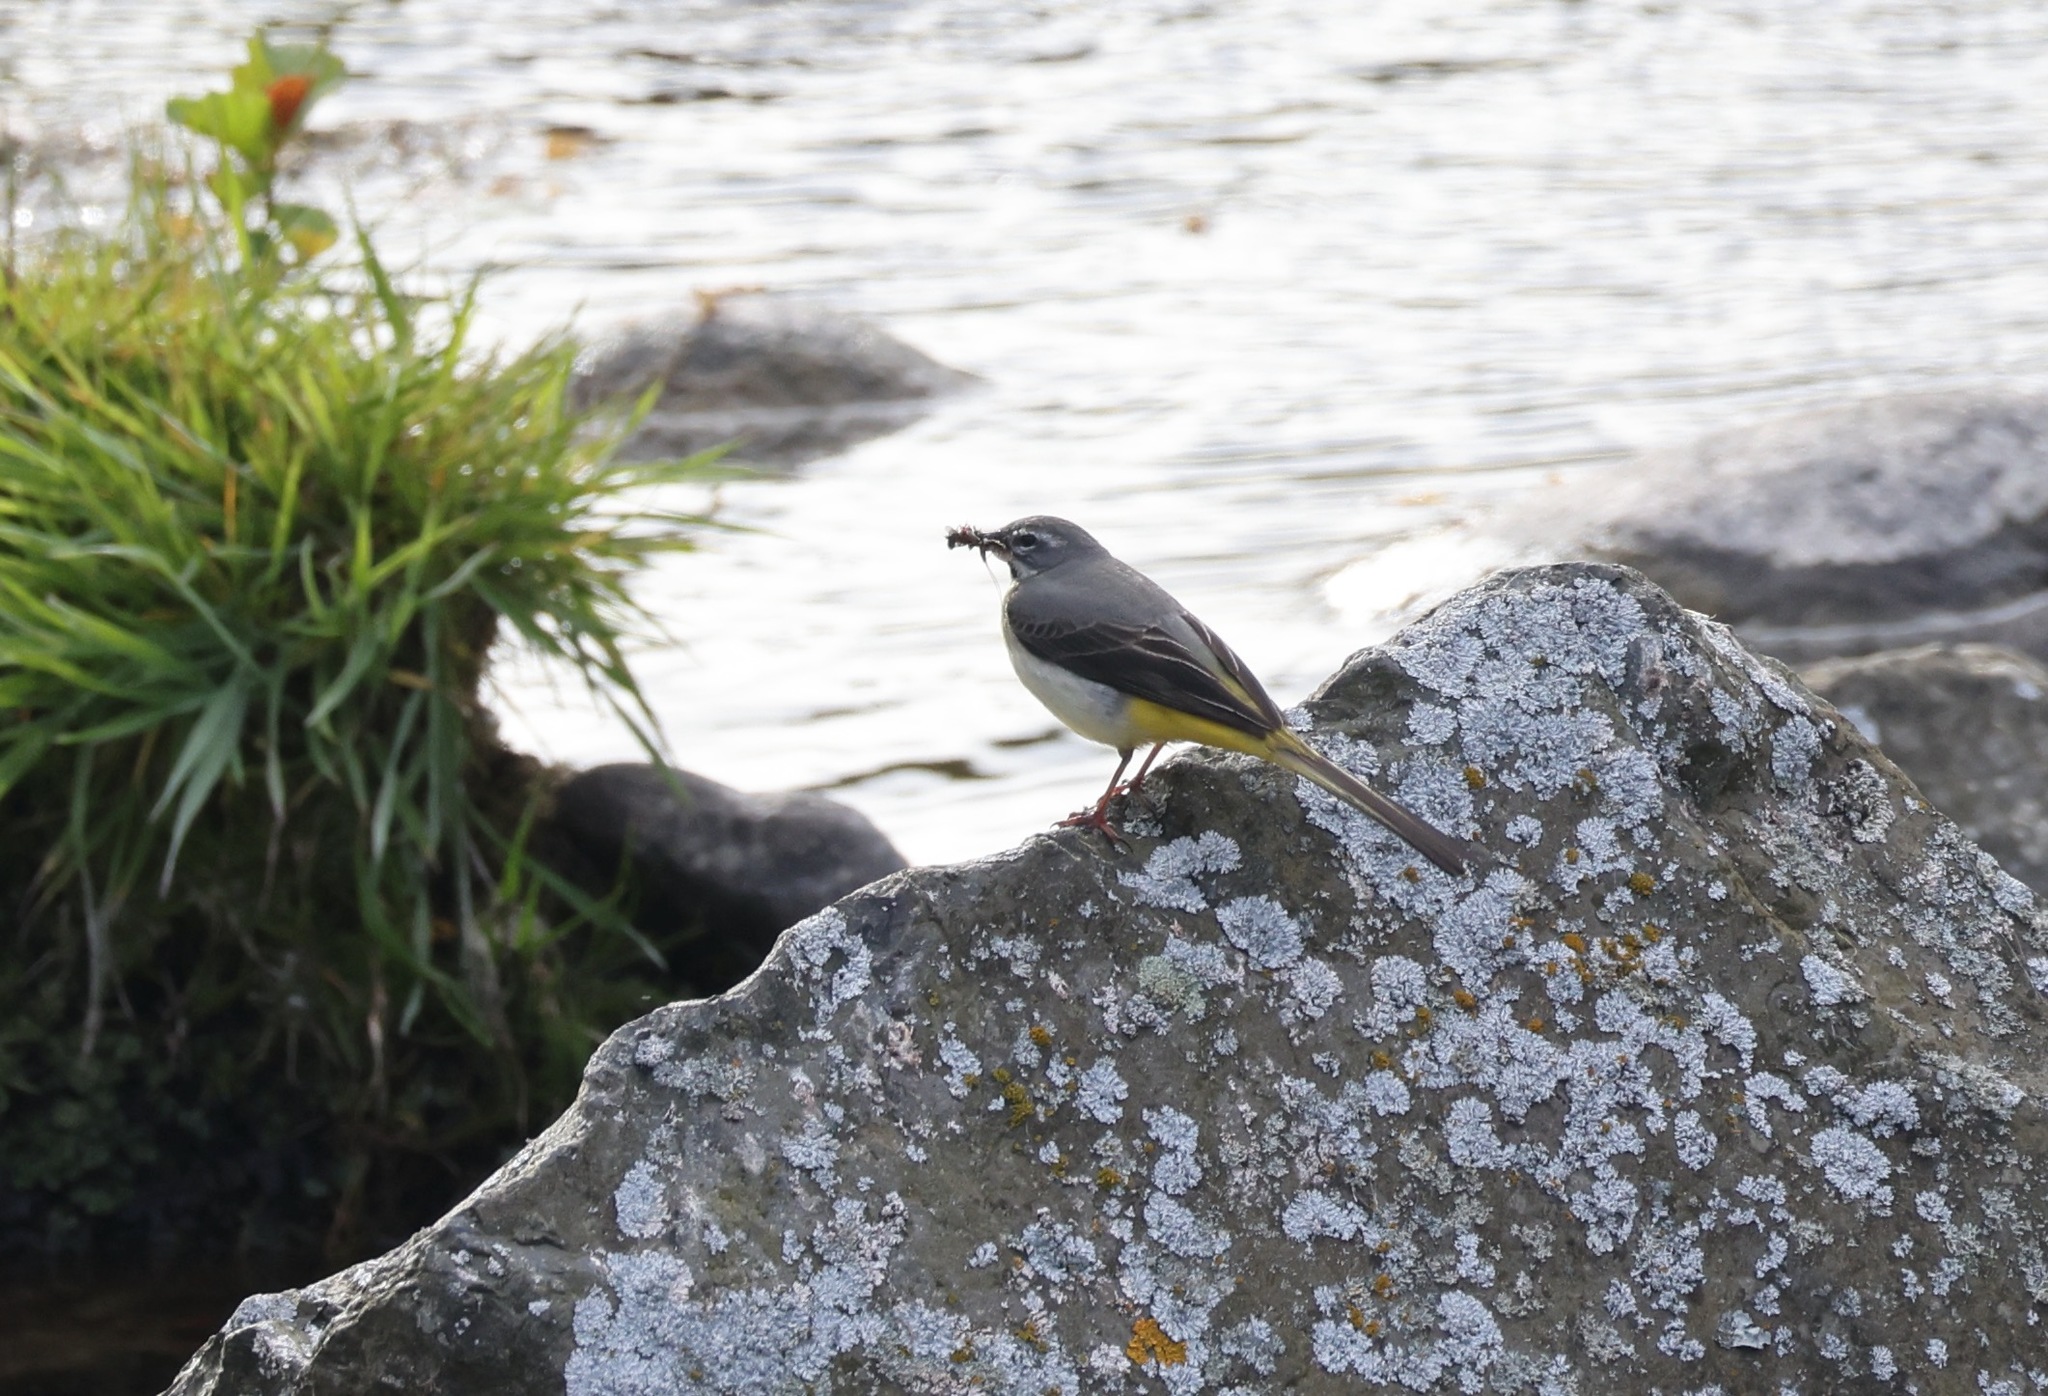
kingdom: Animalia
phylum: Chordata
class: Aves
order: Passeriformes
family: Motacillidae
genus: Motacilla
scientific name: Motacilla cinerea
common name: Grey wagtail
